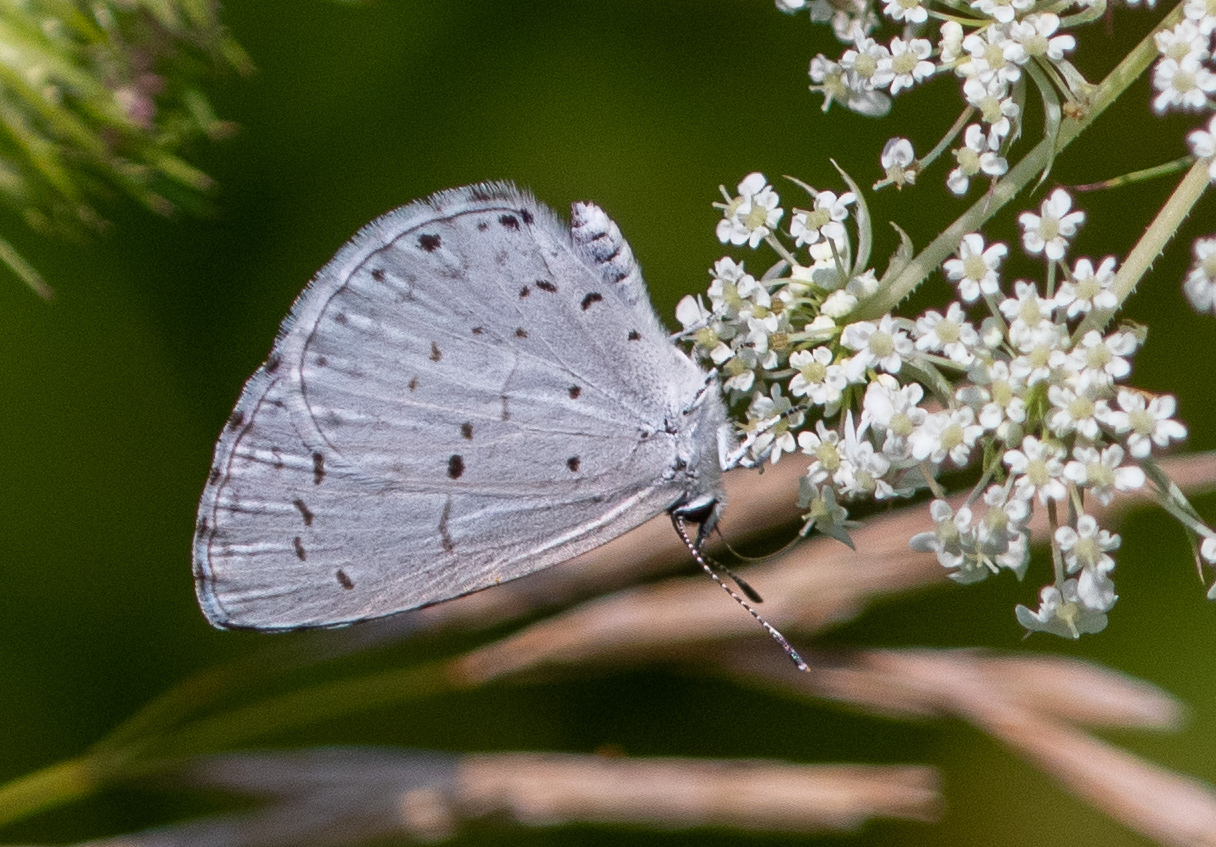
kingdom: Animalia
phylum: Arthropoda
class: Insecta
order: Lepidoptera
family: Lycaenidae
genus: Cyaniris
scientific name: Cyaniris neglecta
